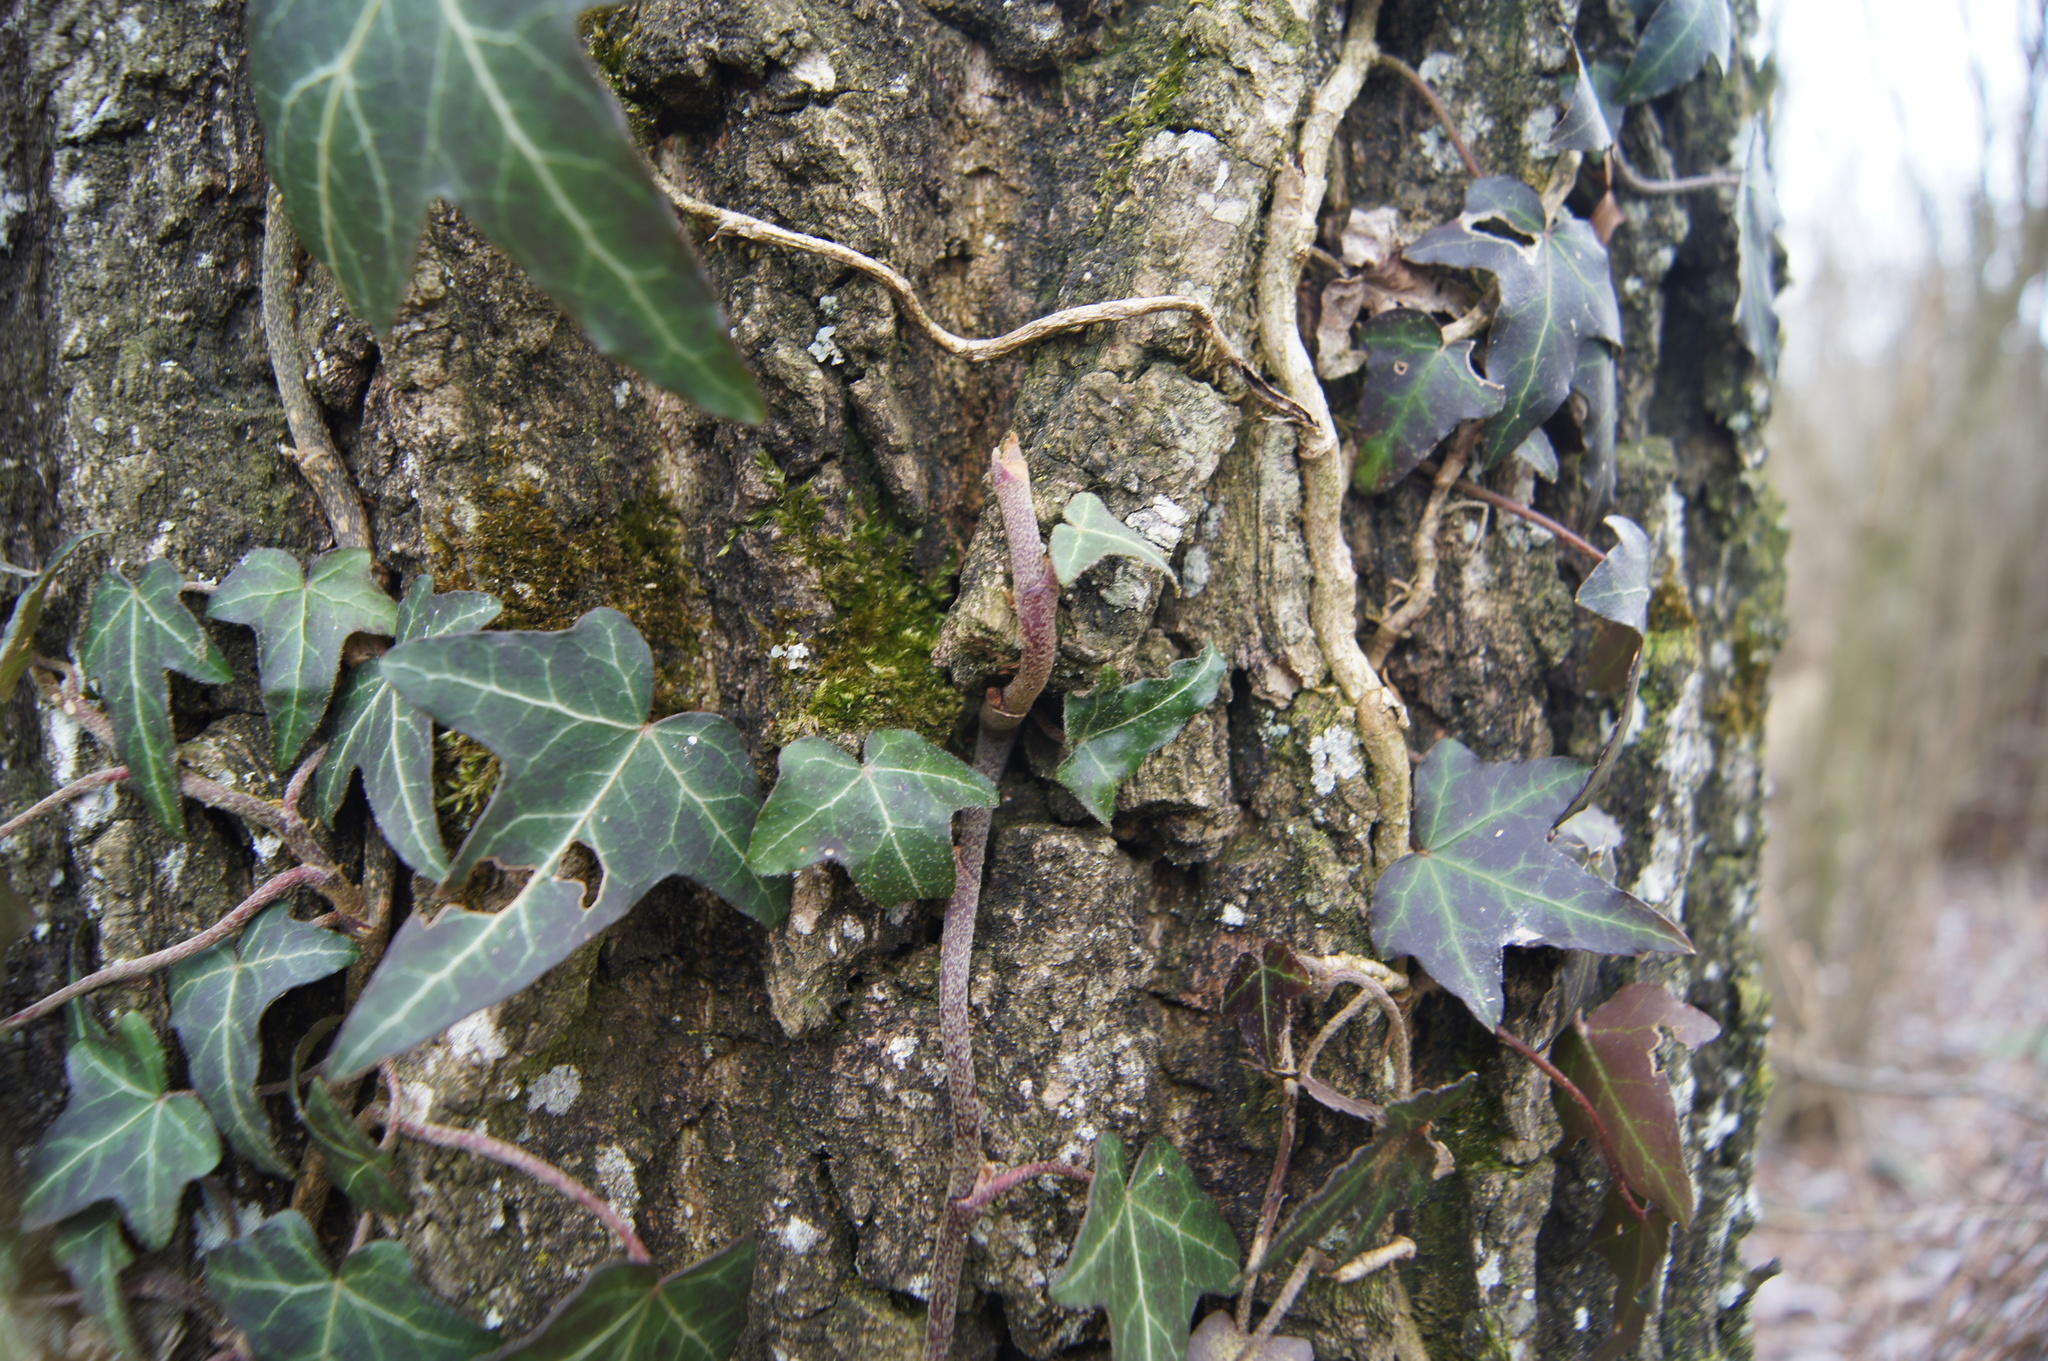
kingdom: Plantae
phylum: Tracheophyta
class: Magnoliopsida
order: Apiales
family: Araliaceae
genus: Hedera
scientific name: Hedera helix
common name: Ivy
